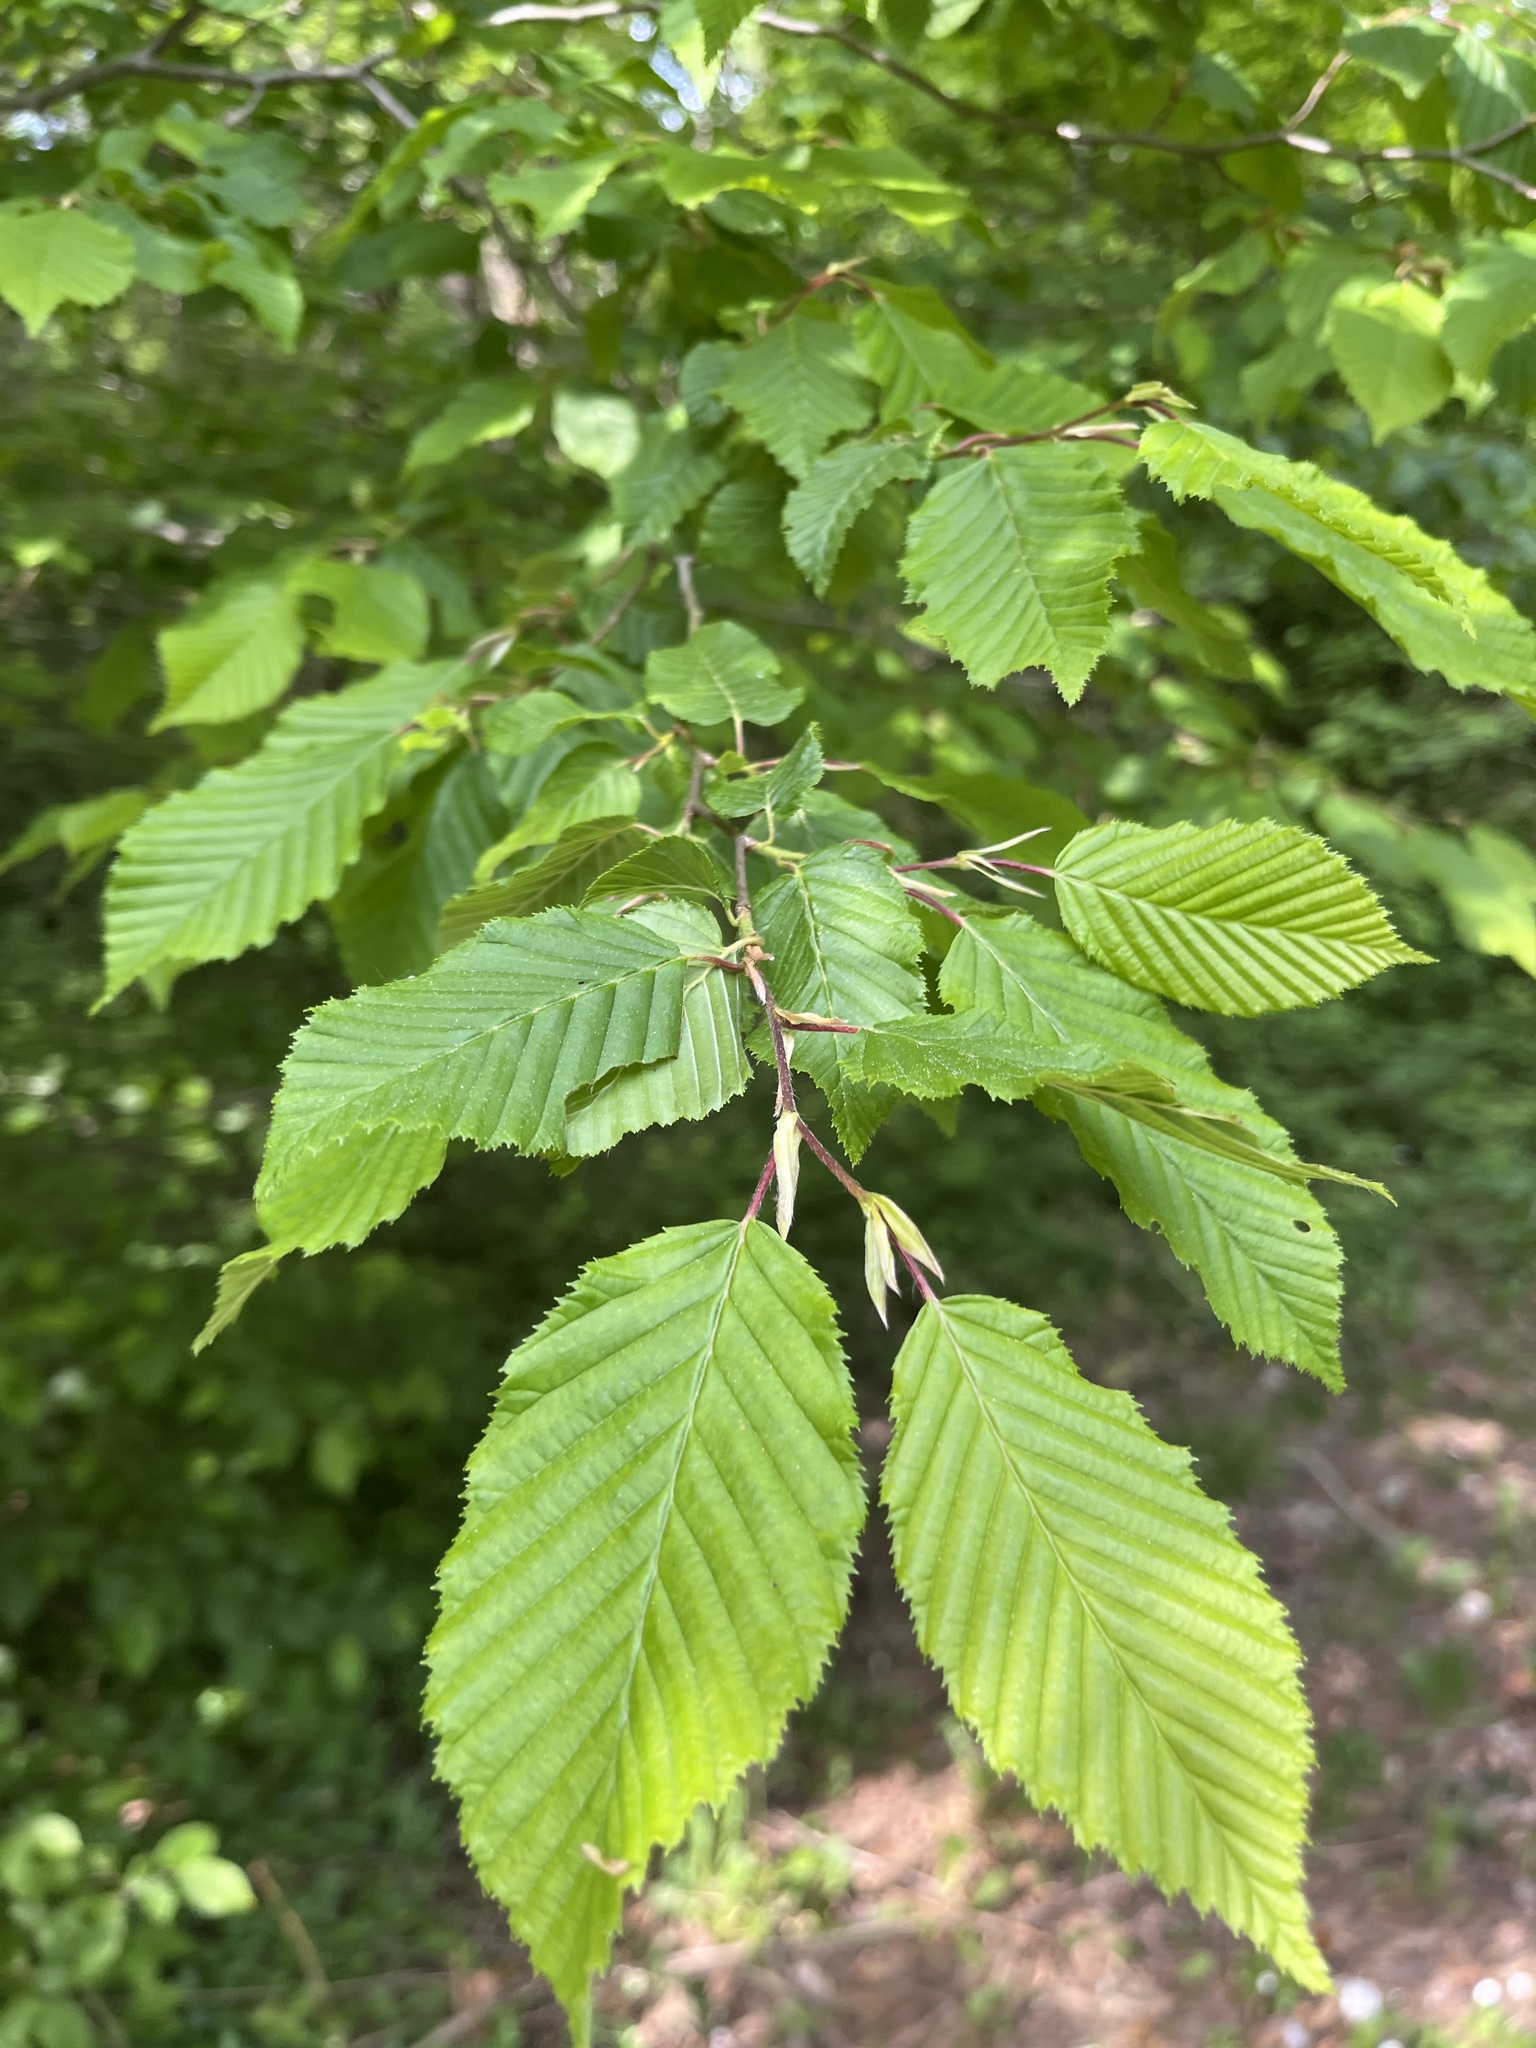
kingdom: Plantae
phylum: Tracheophyta
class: Magnoliopsida
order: Fagales
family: Betulaceae
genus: Carpinus
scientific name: Carpinus betulus
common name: Hornbeam
